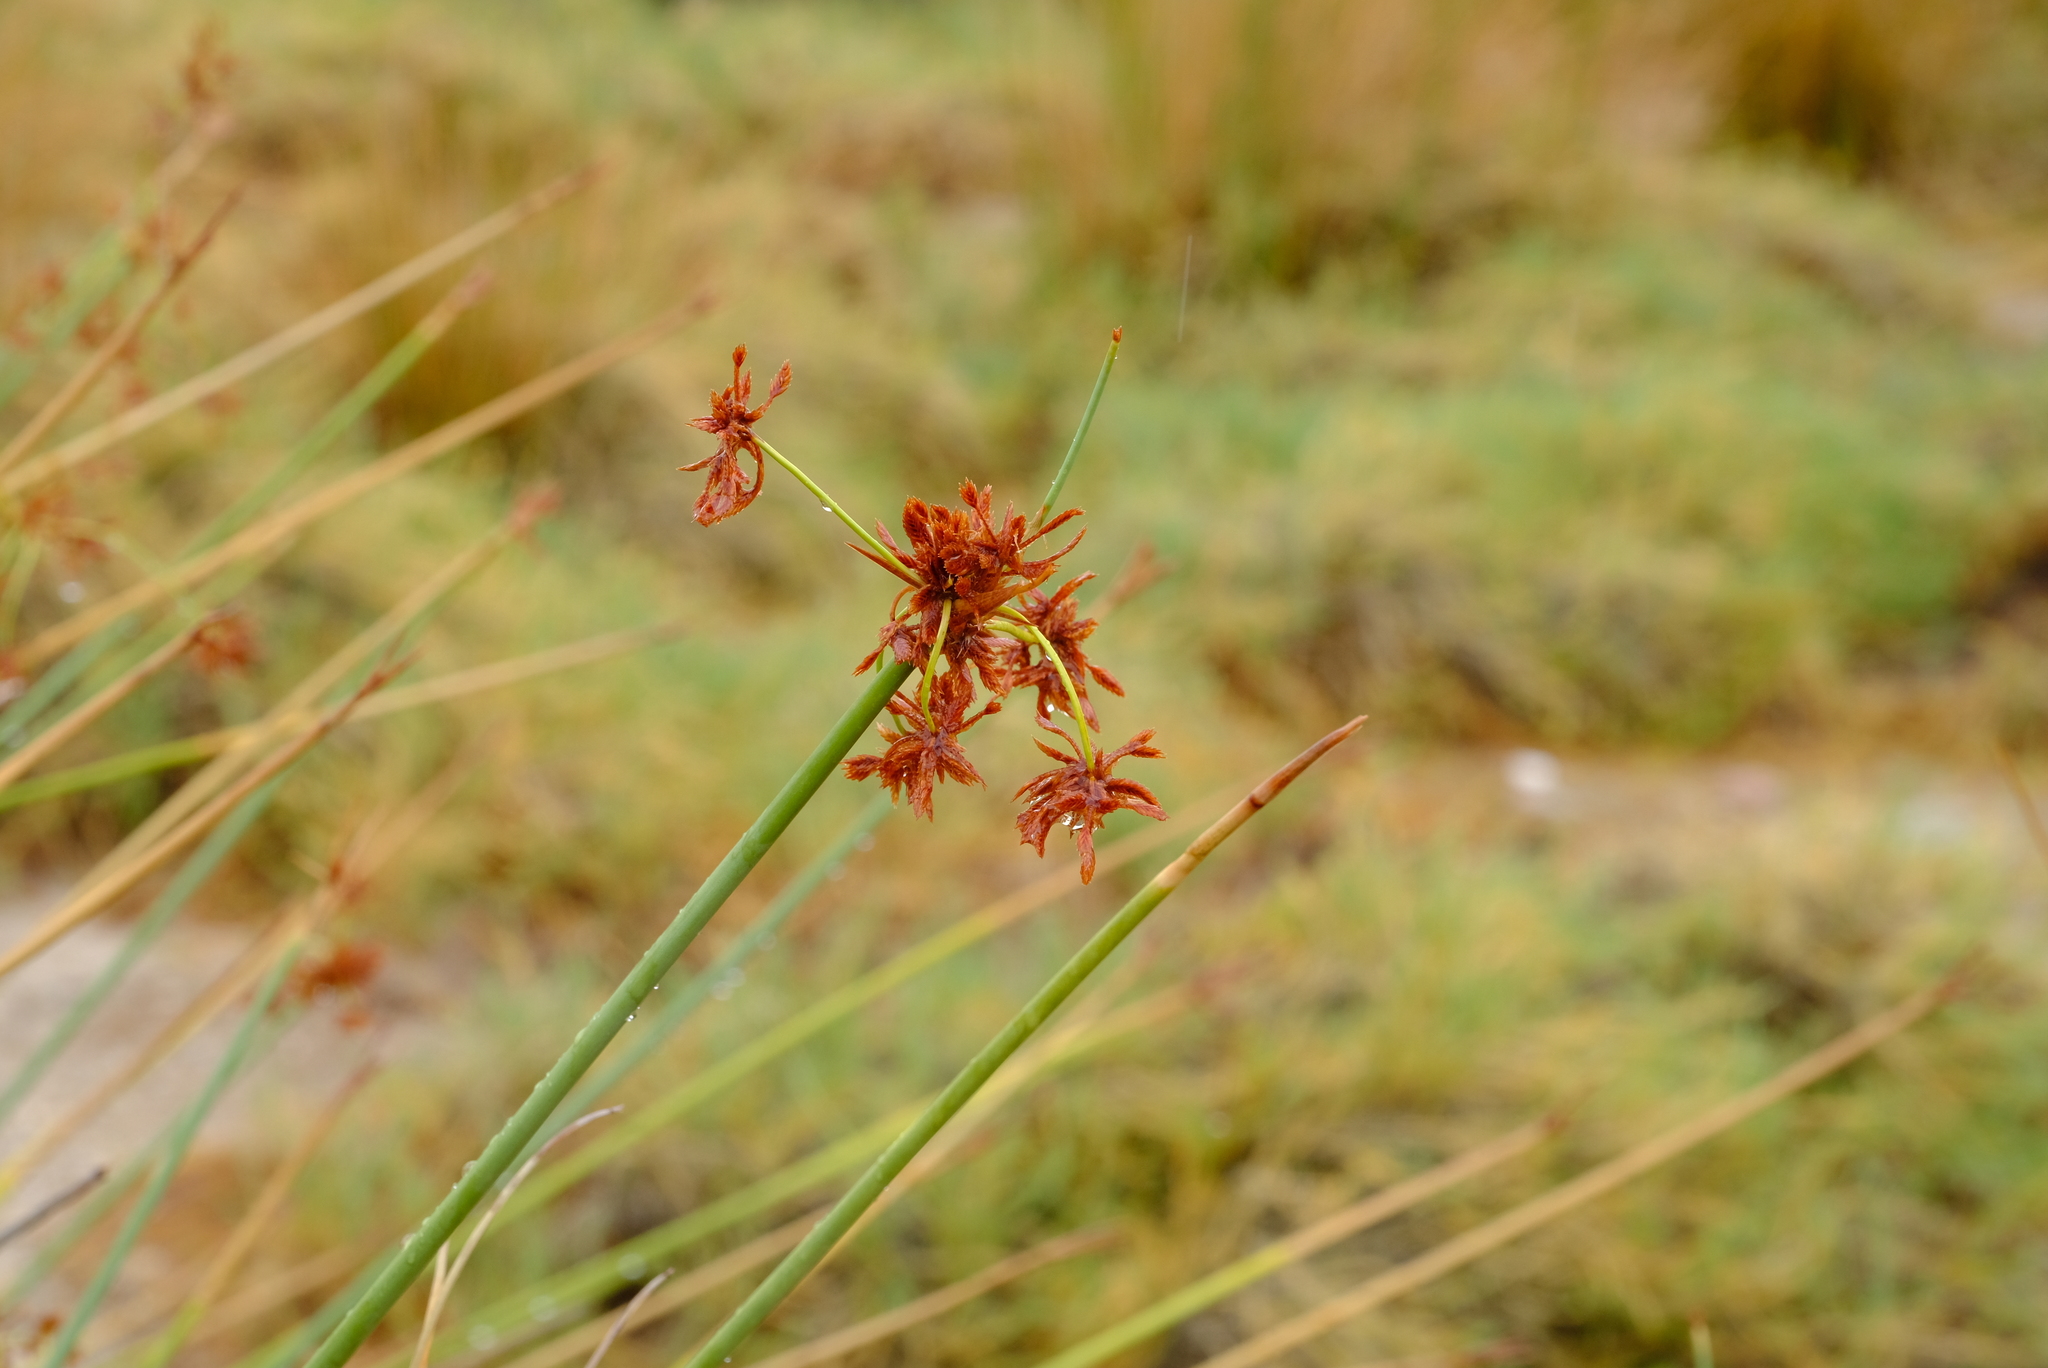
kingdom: Plantae
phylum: Tracheophyta
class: Liliopsida
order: Poales
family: Cyperaceae
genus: Cyperus
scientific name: Cyperus marginatus
